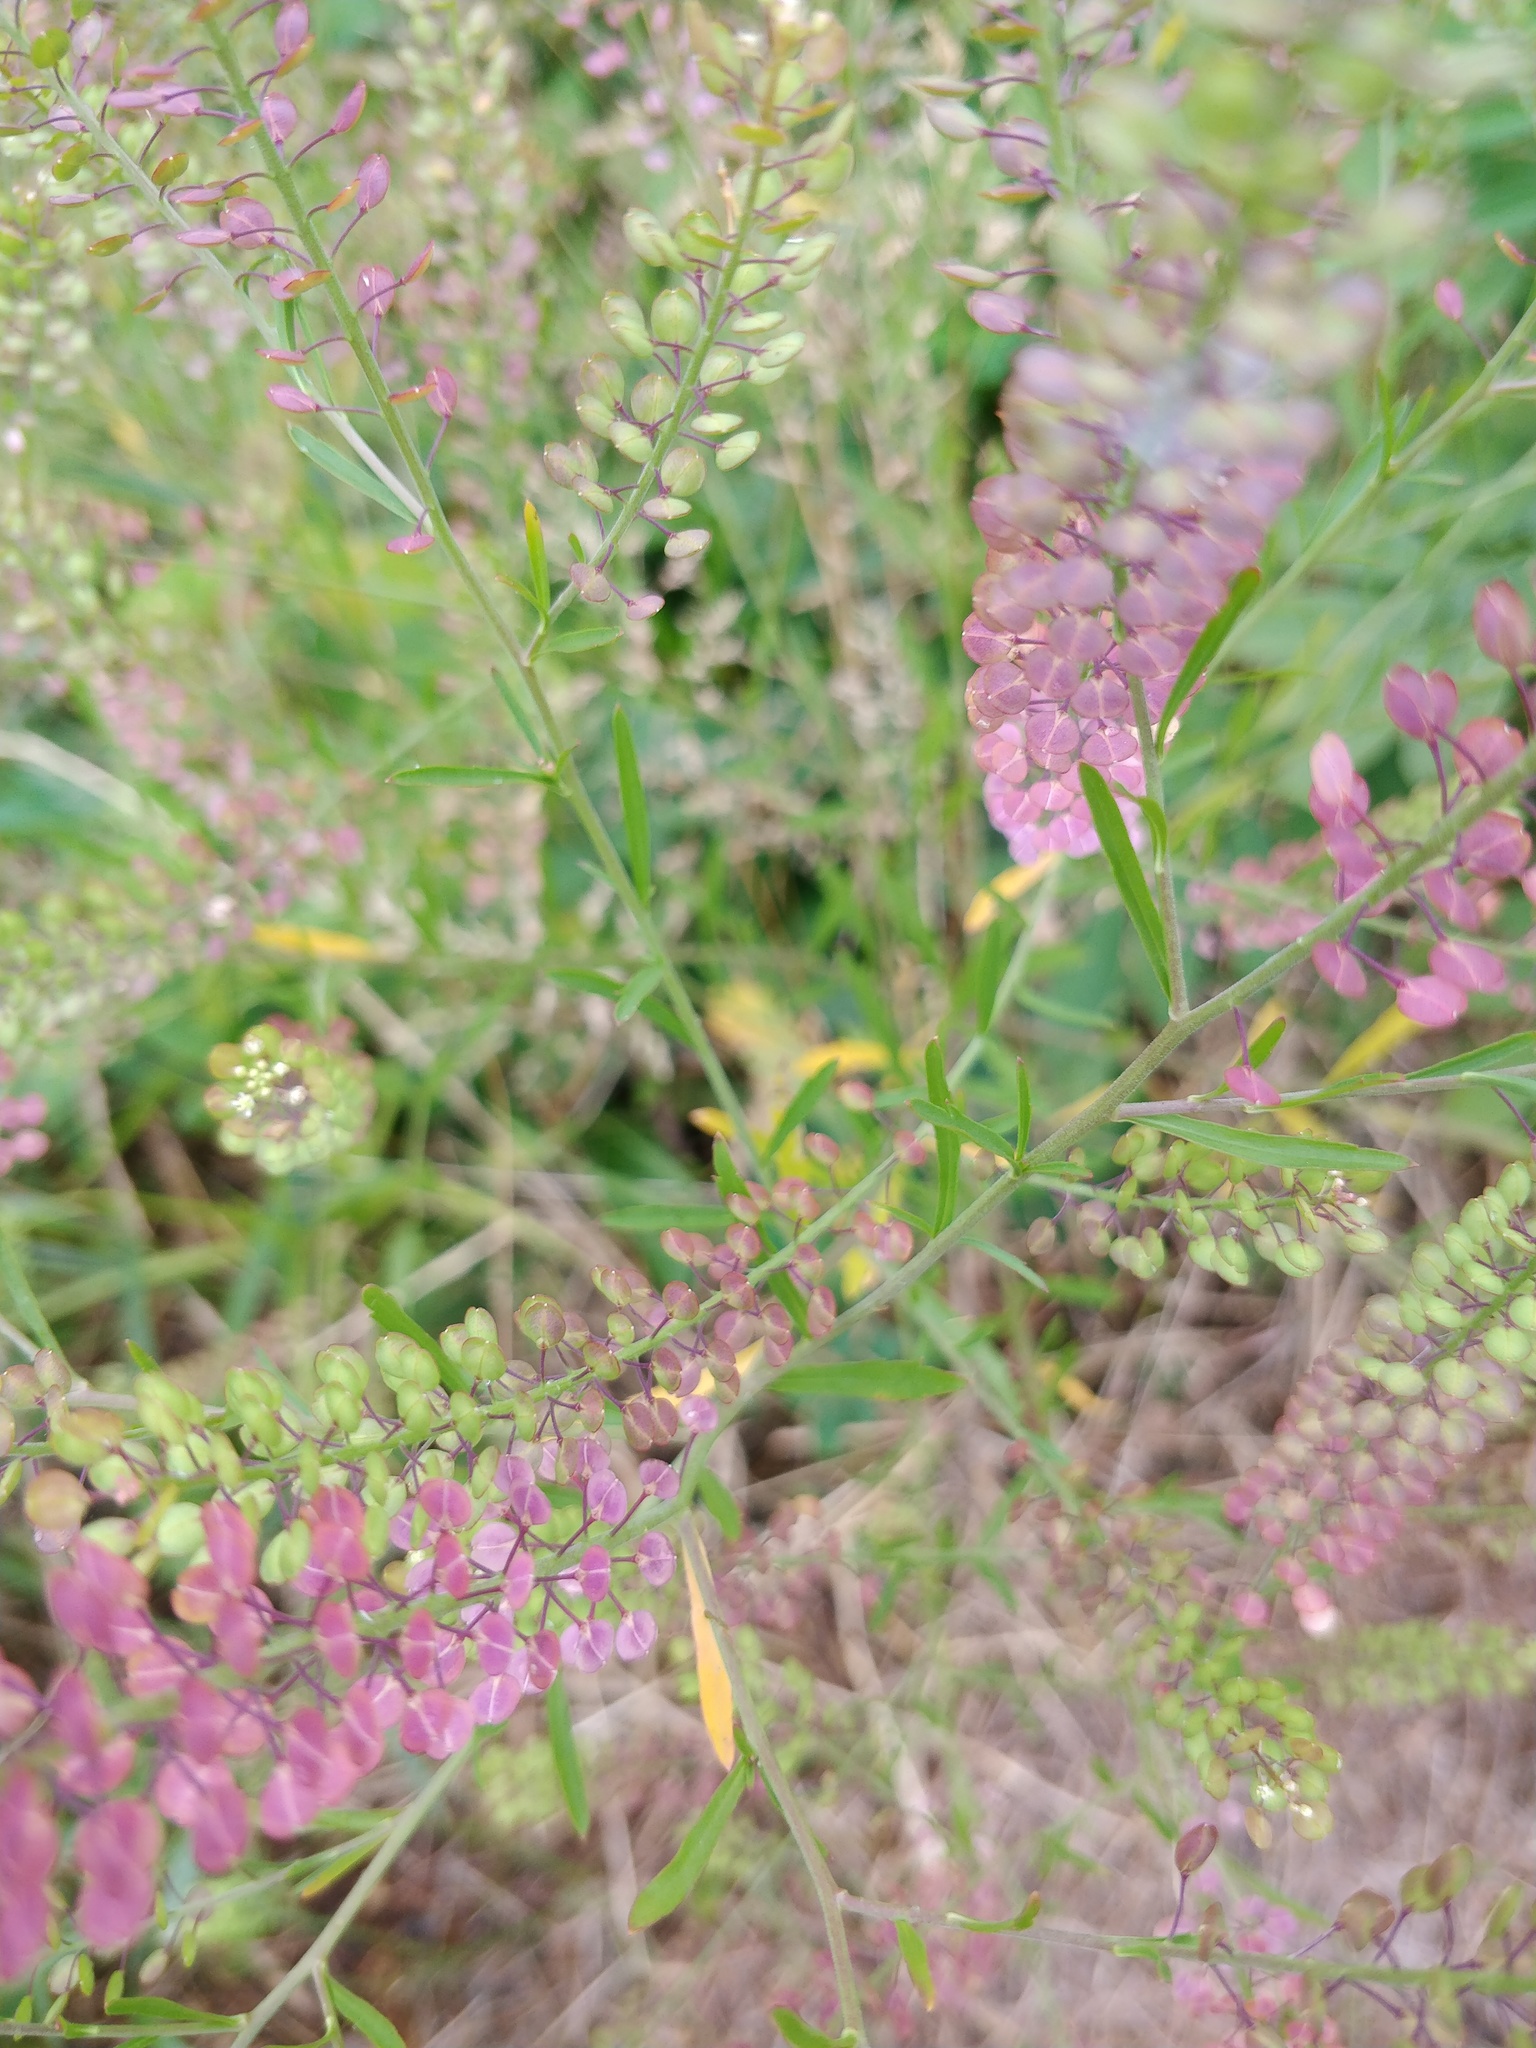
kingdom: Plantae
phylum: Tracheophyta
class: Magnoliopsida
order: Brassicales
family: Brassicaceae
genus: Lepidium
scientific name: Lepidium virginicum
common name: Least pepperwort
